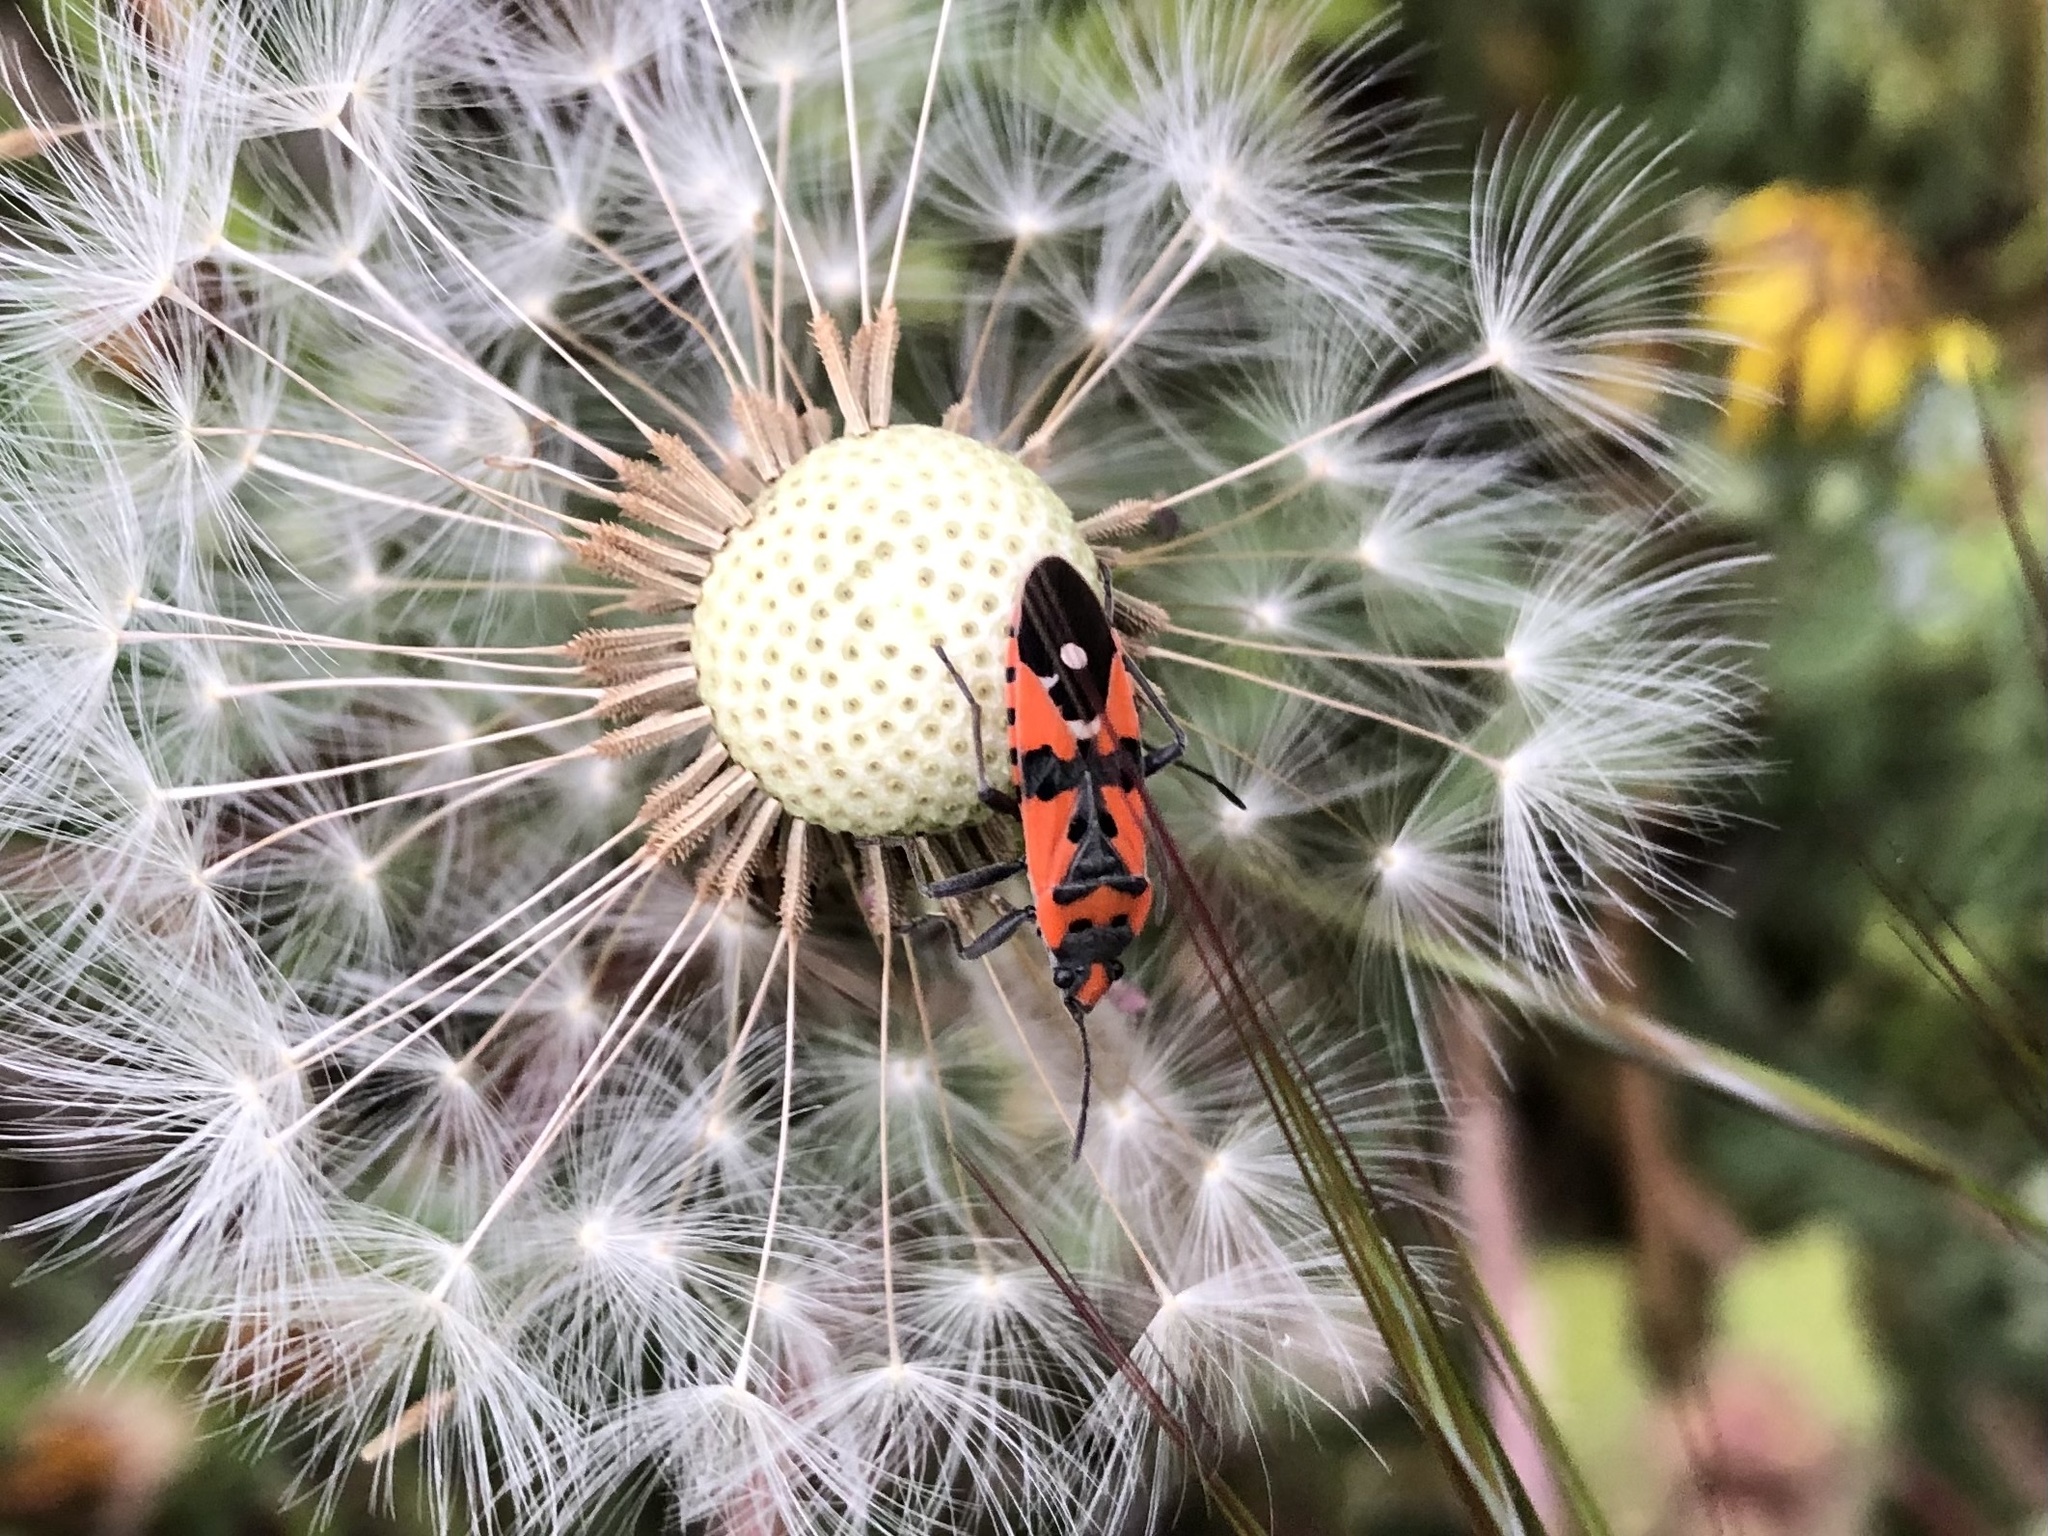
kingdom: Animalia
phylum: Arthropoda
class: Insecta
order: Hemiptera
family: Lygaeidae
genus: Lygaeus
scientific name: Lygaeus equestris
